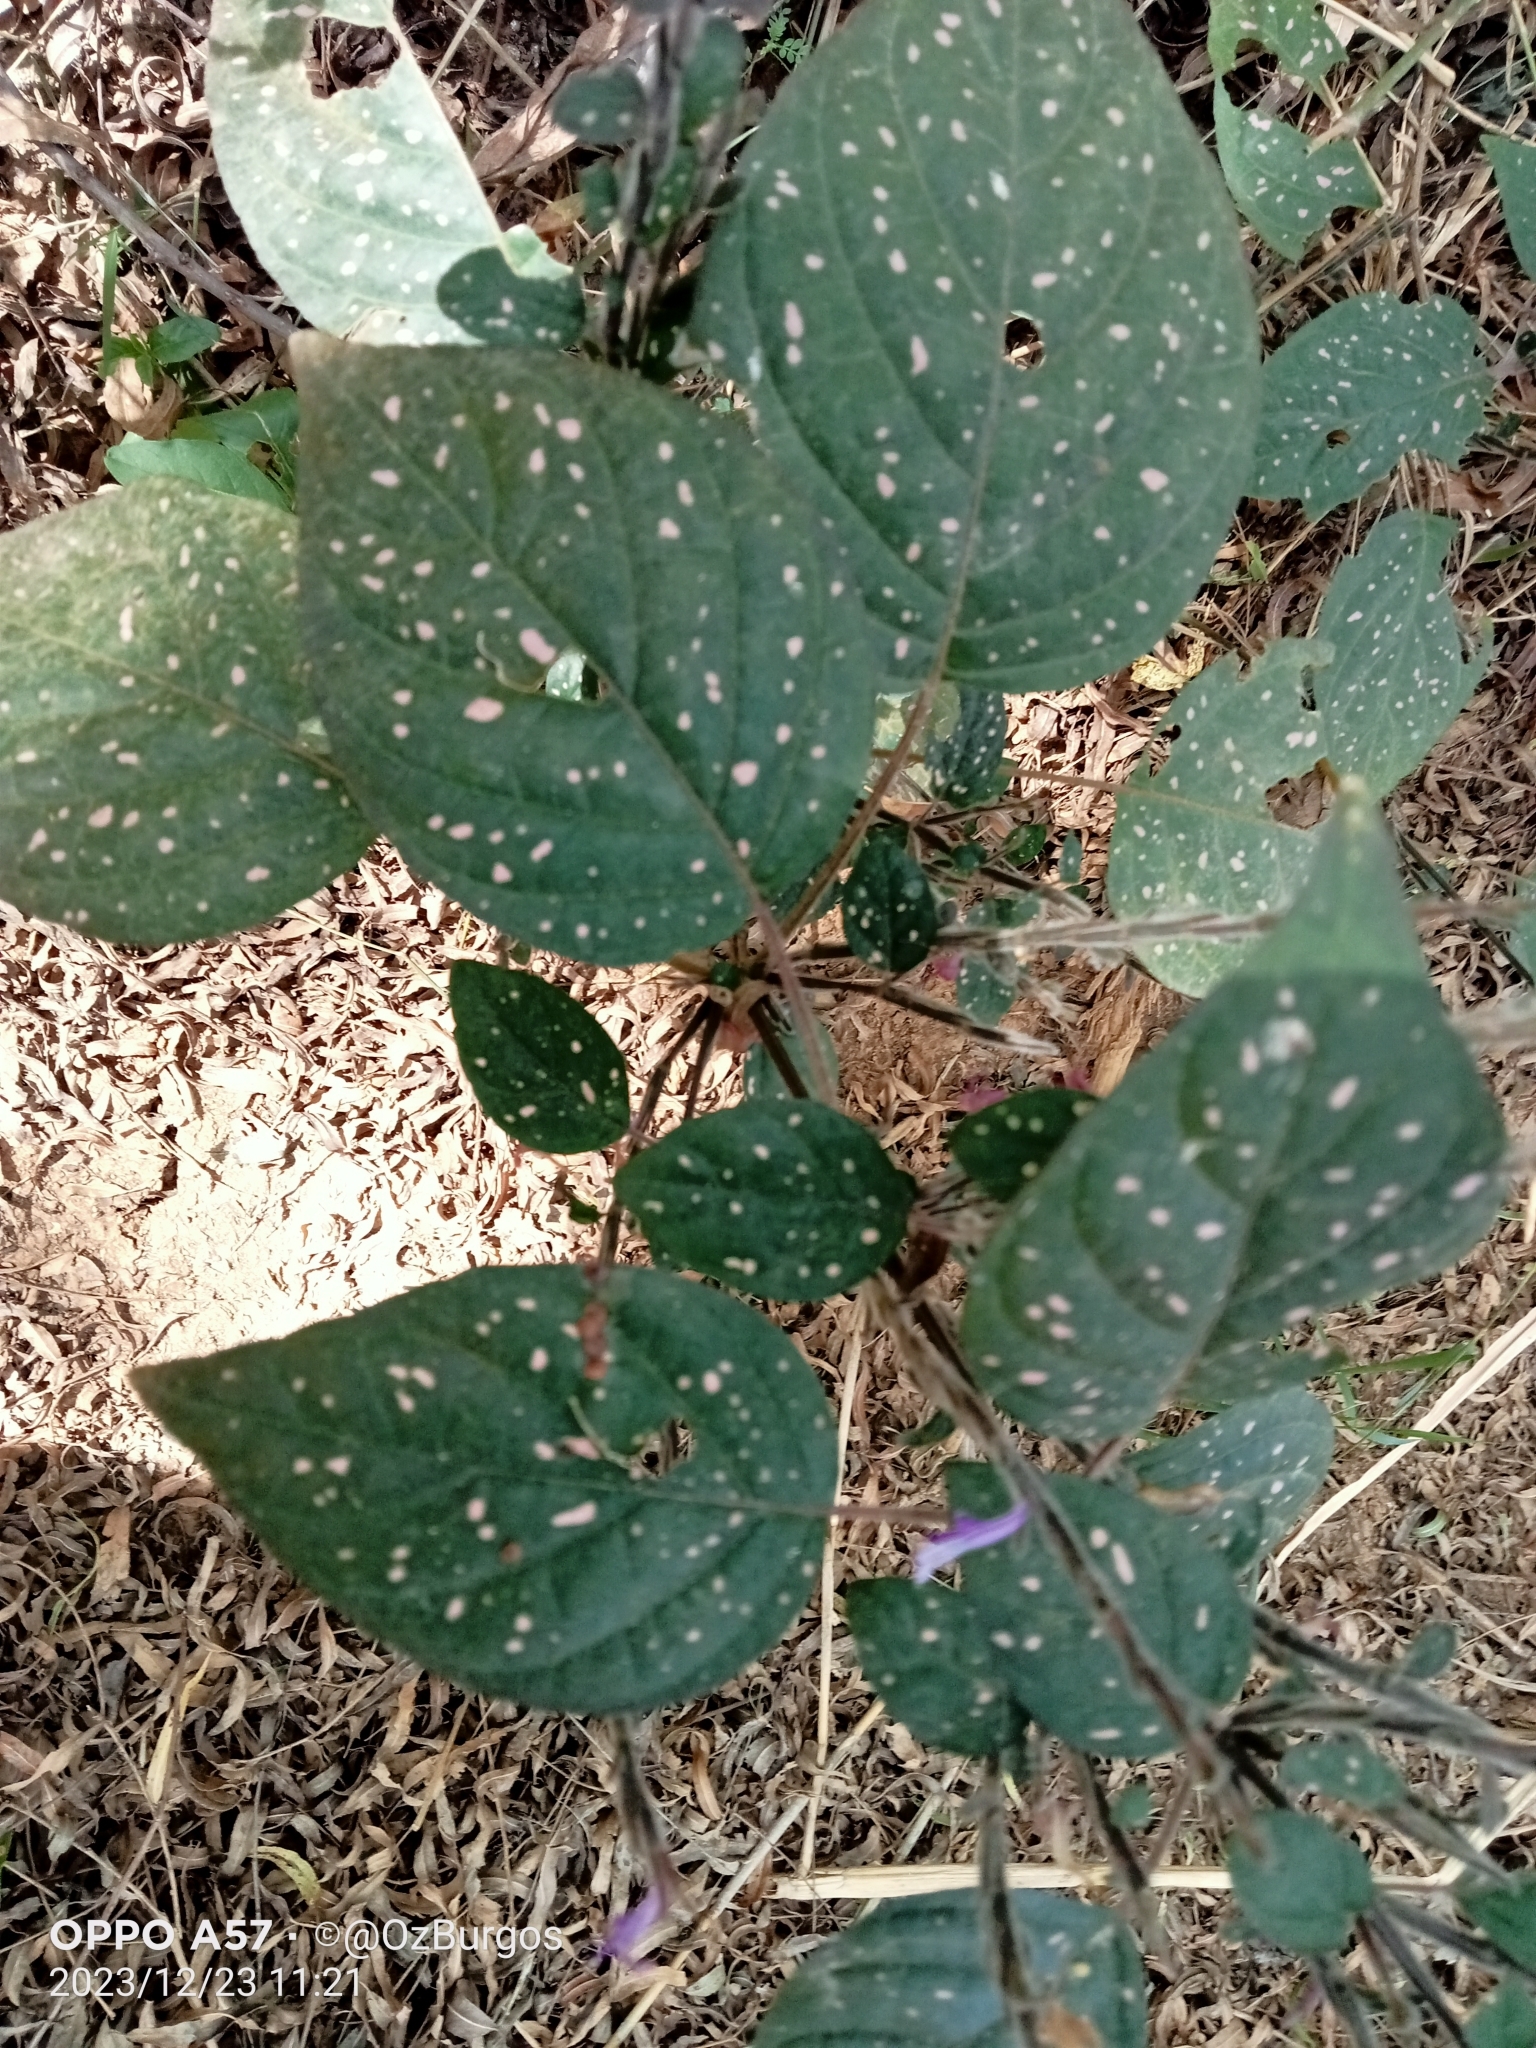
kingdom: Plantae
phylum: Tracheophyta
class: Magnoliopsida
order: Lamiales
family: Acanthaceae
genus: Hypoestes
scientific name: Hypoestes phyllostachya
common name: Polkadot-plant
